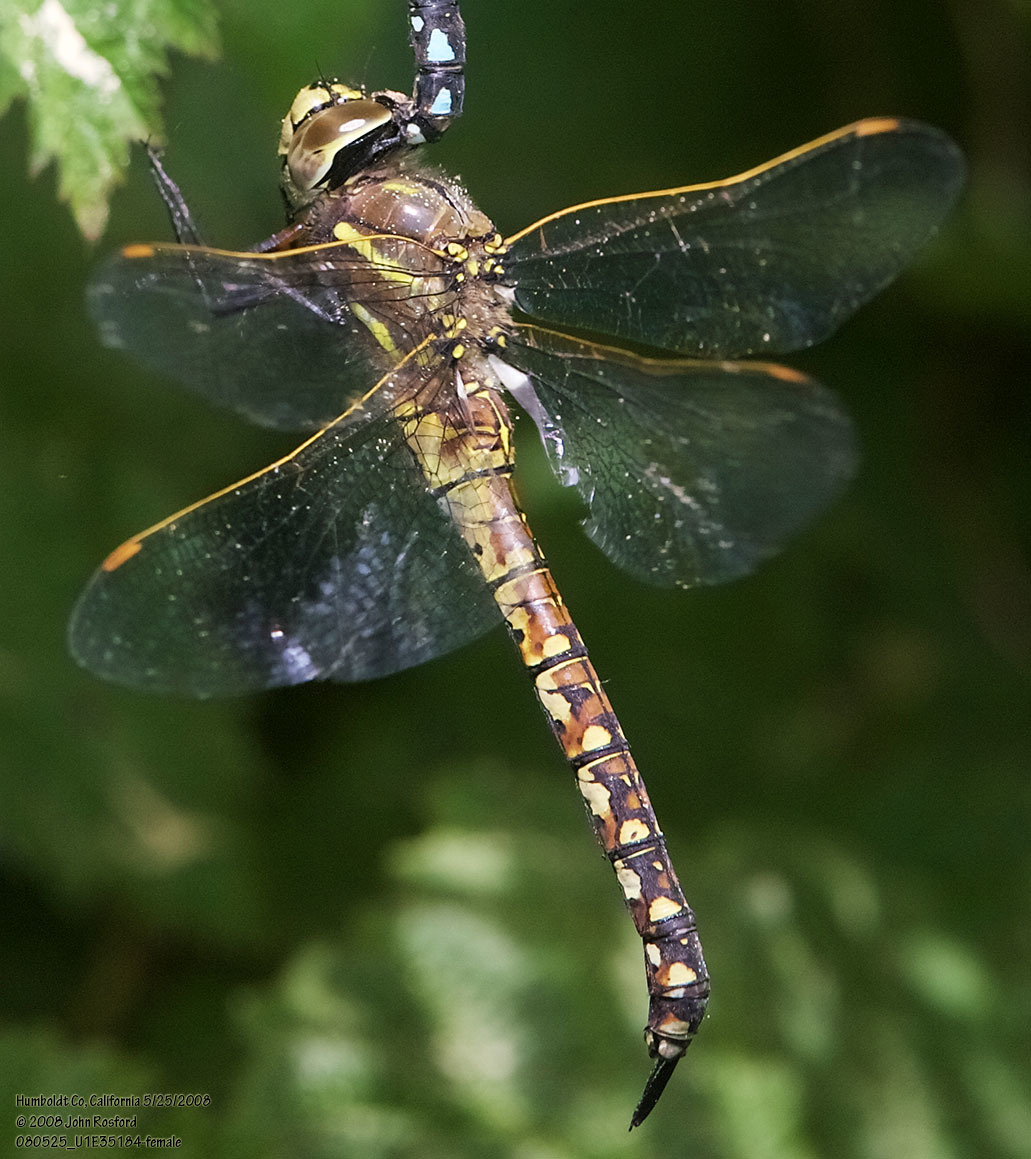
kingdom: Animalia
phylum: Arthropoda
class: Insecta
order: Odonata
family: Aeshnidae
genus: Rhionaeschna
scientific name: Rhionaeschna californica
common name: California darner
